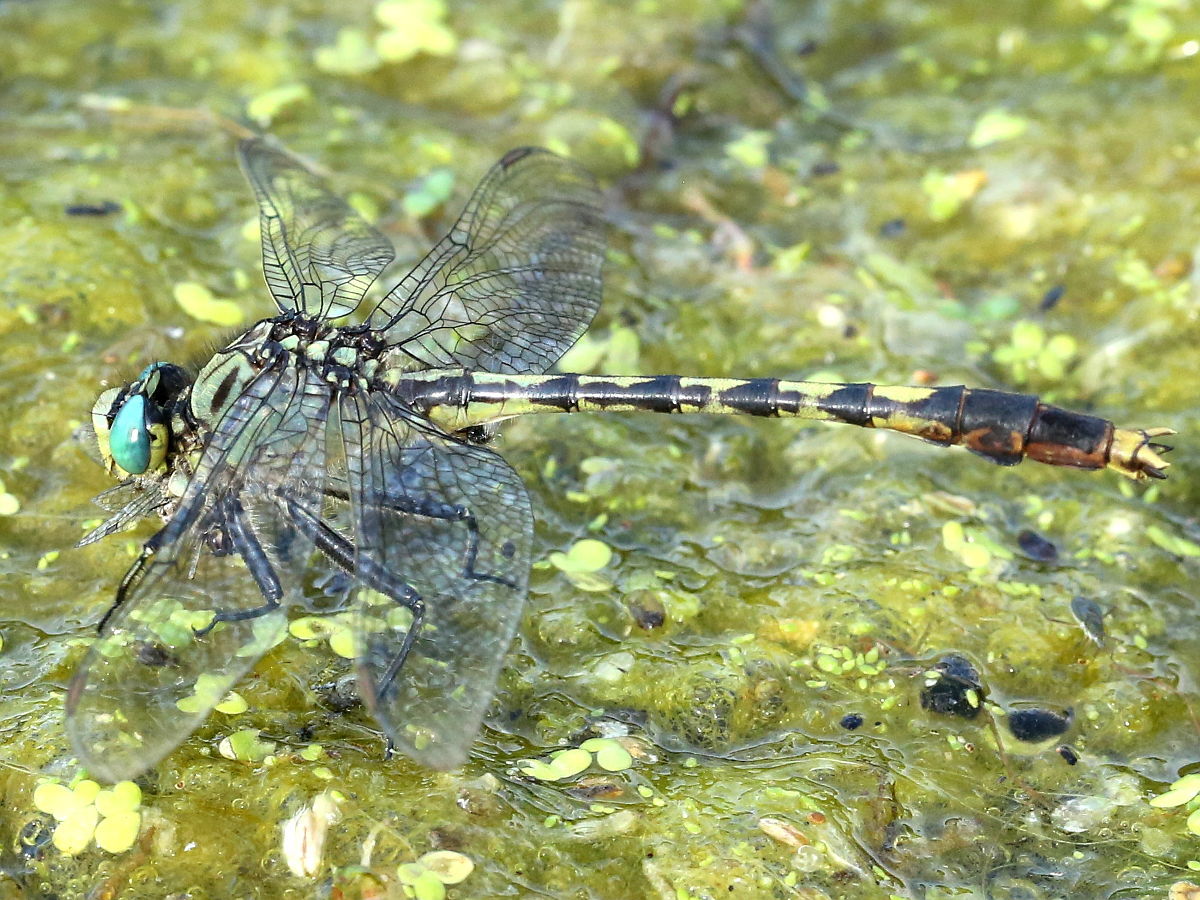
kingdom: Animalia
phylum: Arthropoda
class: Insecta
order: Odonata
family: Gomphidae
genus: Arigomphus
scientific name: Arigomphus villosipes
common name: Unicorn clubtail
